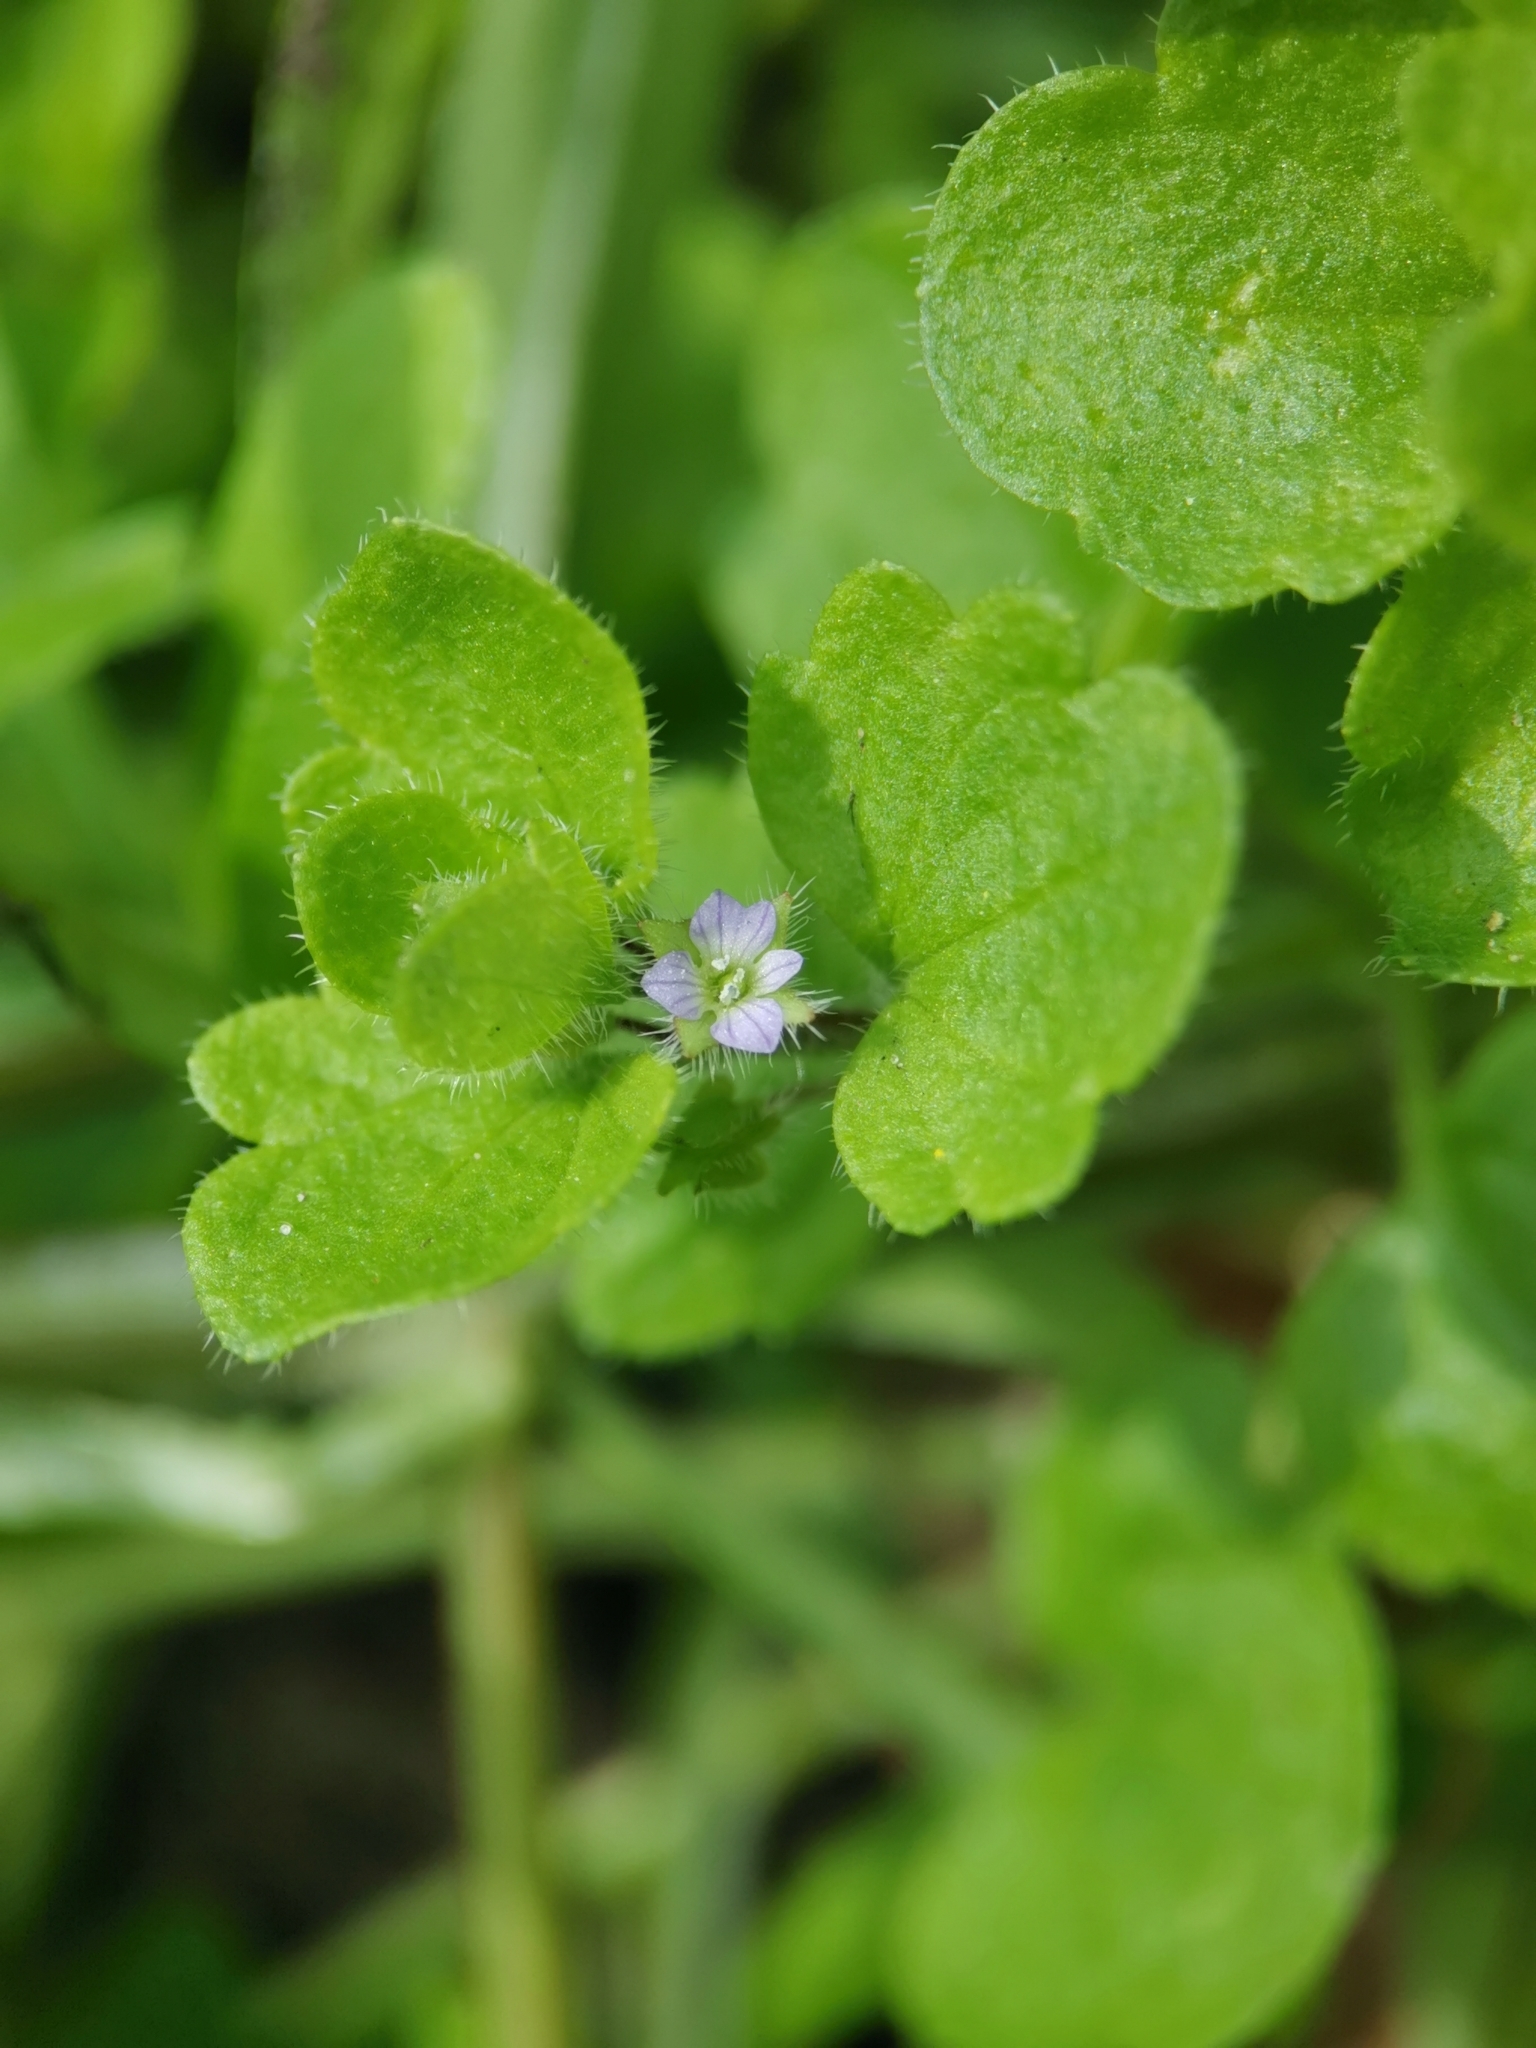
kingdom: Plantae
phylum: Tracheophyta
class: Magnoliopsida
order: Lamiales
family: Plantaginaceae
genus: Veronica
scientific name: Veronica sublobata
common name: False ivy-leaved speedwell
